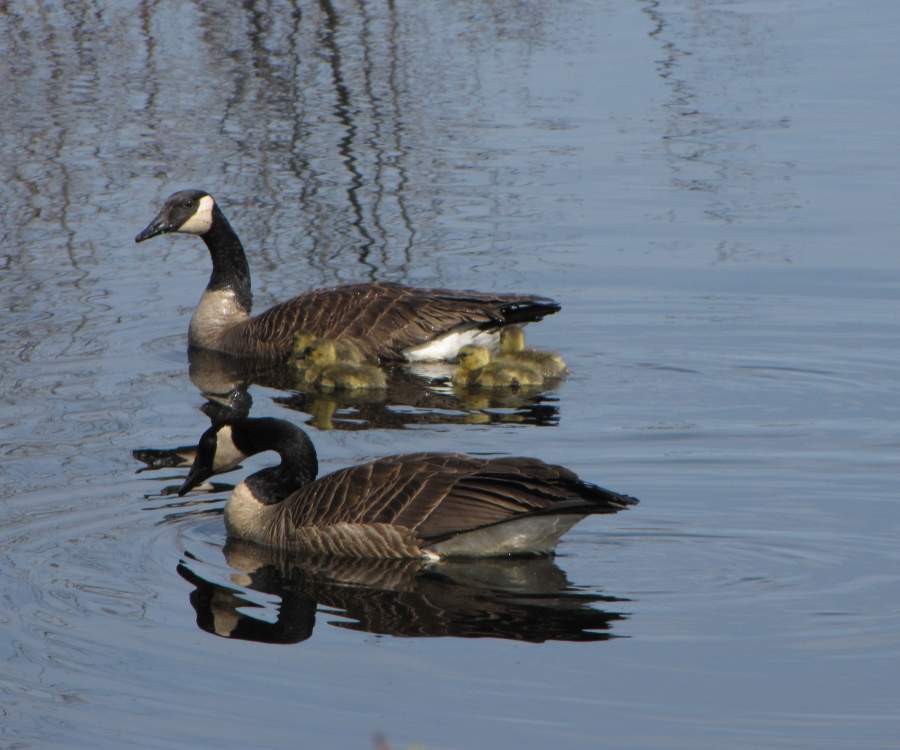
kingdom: Animalia
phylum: Chordata
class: Aves
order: Anseriformes
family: Anatidae
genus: Branta
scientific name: Branta canadensis
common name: Canada goose
